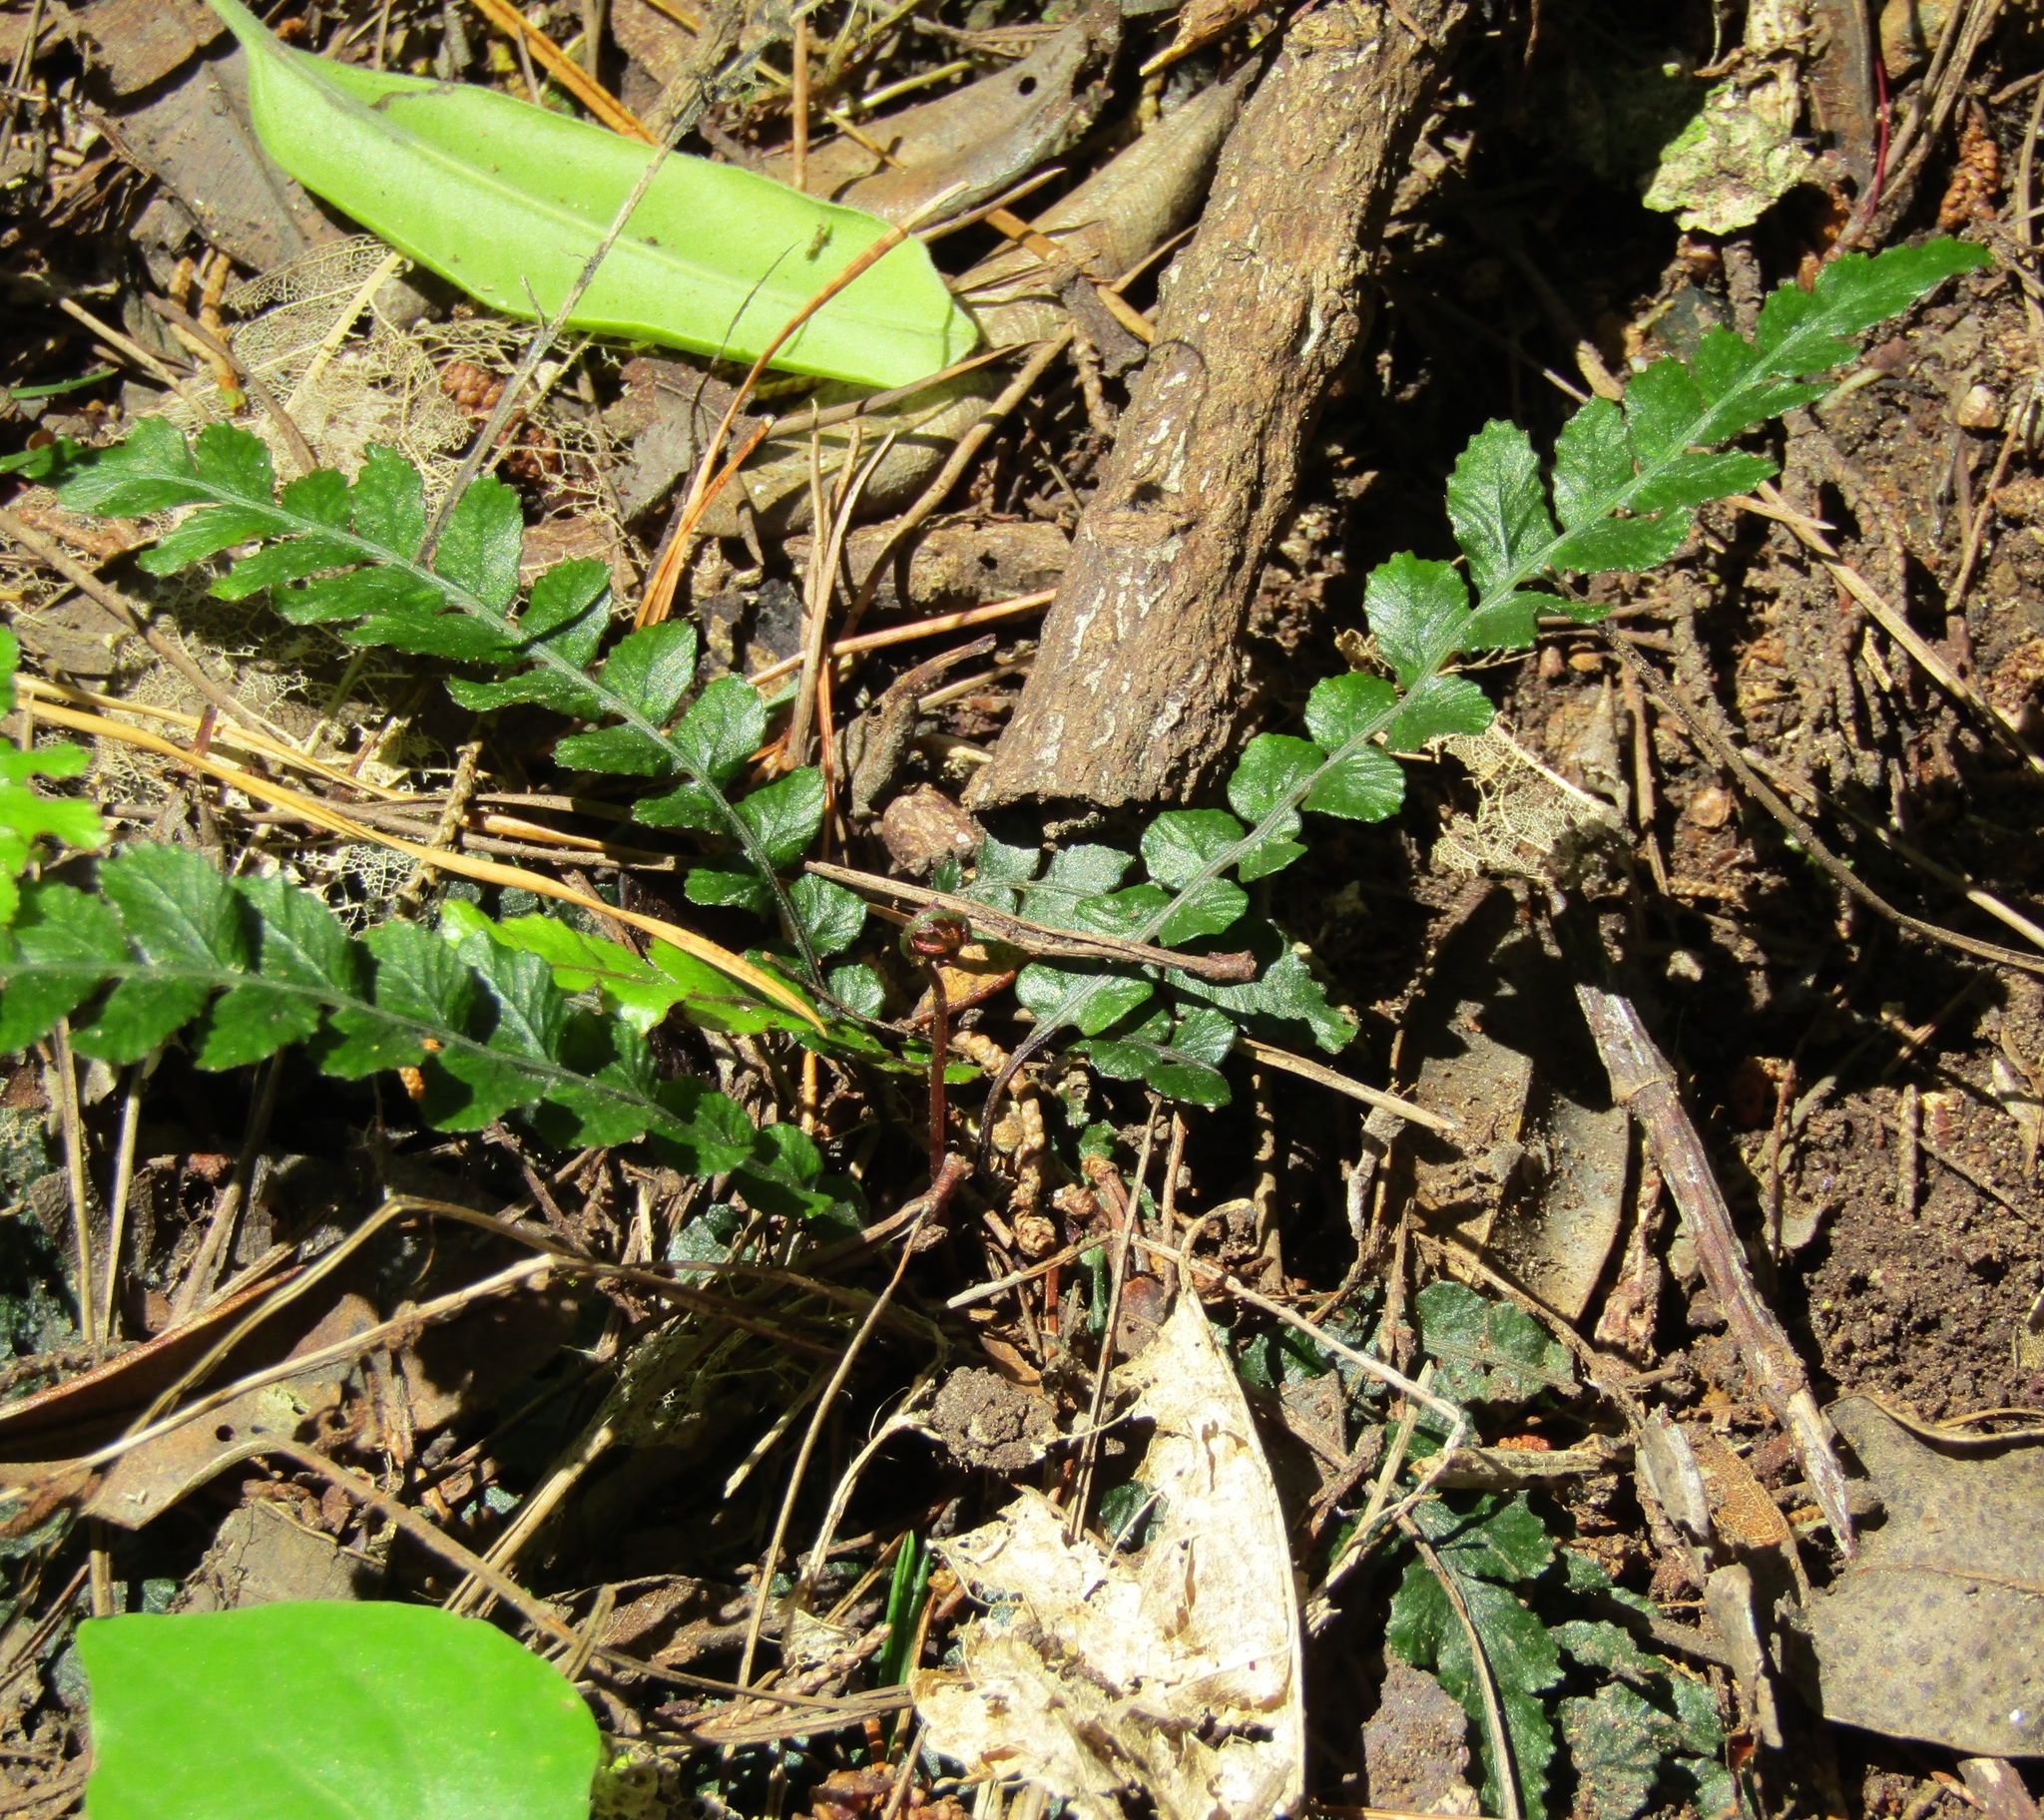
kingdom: Plantae
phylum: Tracheophyta
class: Polypodiopsida
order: Polypodiales
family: Blechnaceae
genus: Austroblechnum
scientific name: Austroblechnum membranaceum
